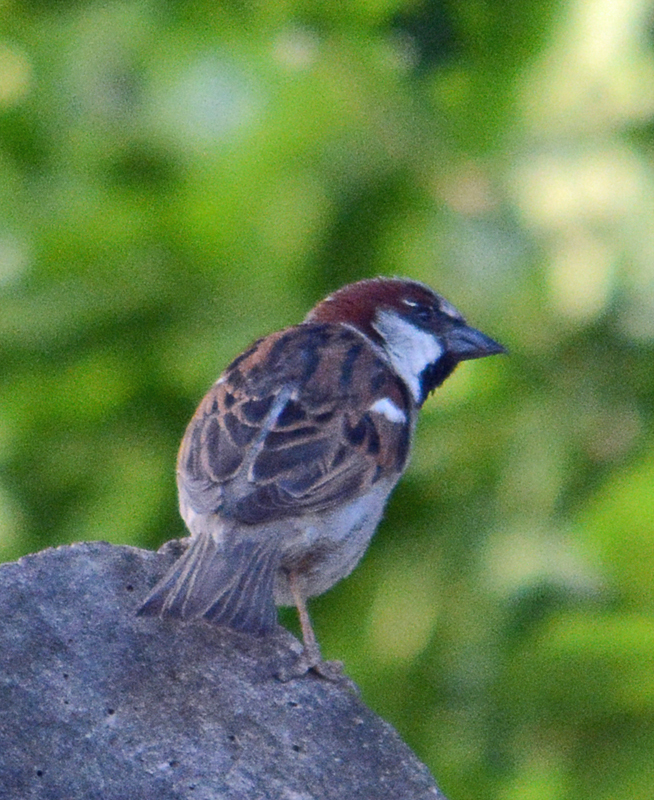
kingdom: Animalia
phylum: Chordata
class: Aves
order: Passeriformes
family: Passeridae
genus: Passer
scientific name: Passer domesticus
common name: House sparrow
